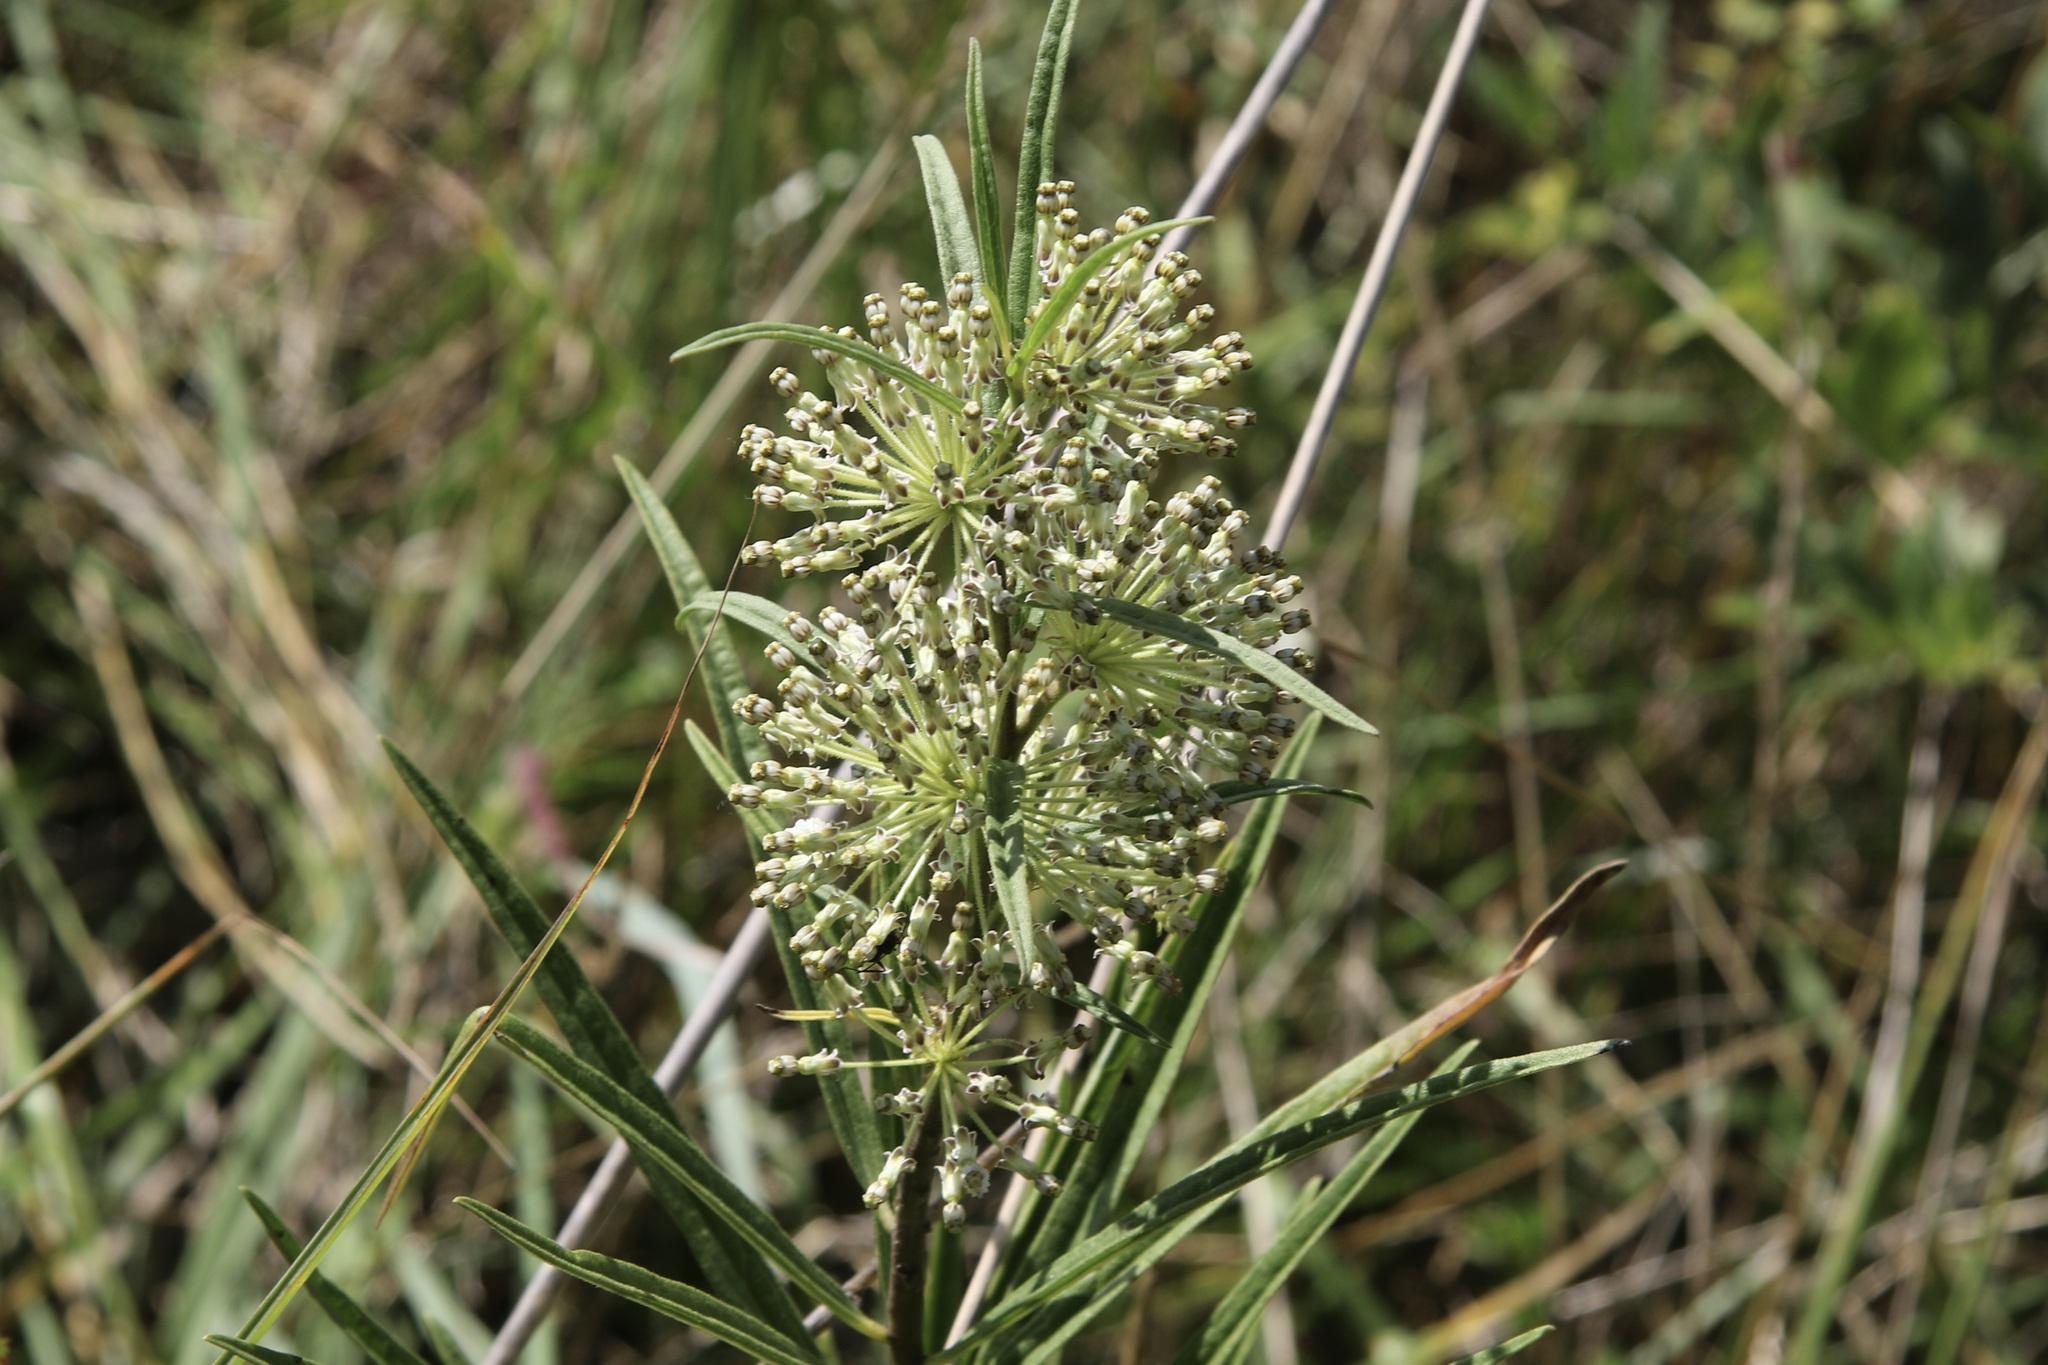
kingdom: Plantae
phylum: Tracheophyta
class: Magnoliopsida
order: Gentianales
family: Apocynaceae
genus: Asclepias
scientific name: Asclepias hirtella
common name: Prairie milkweed
